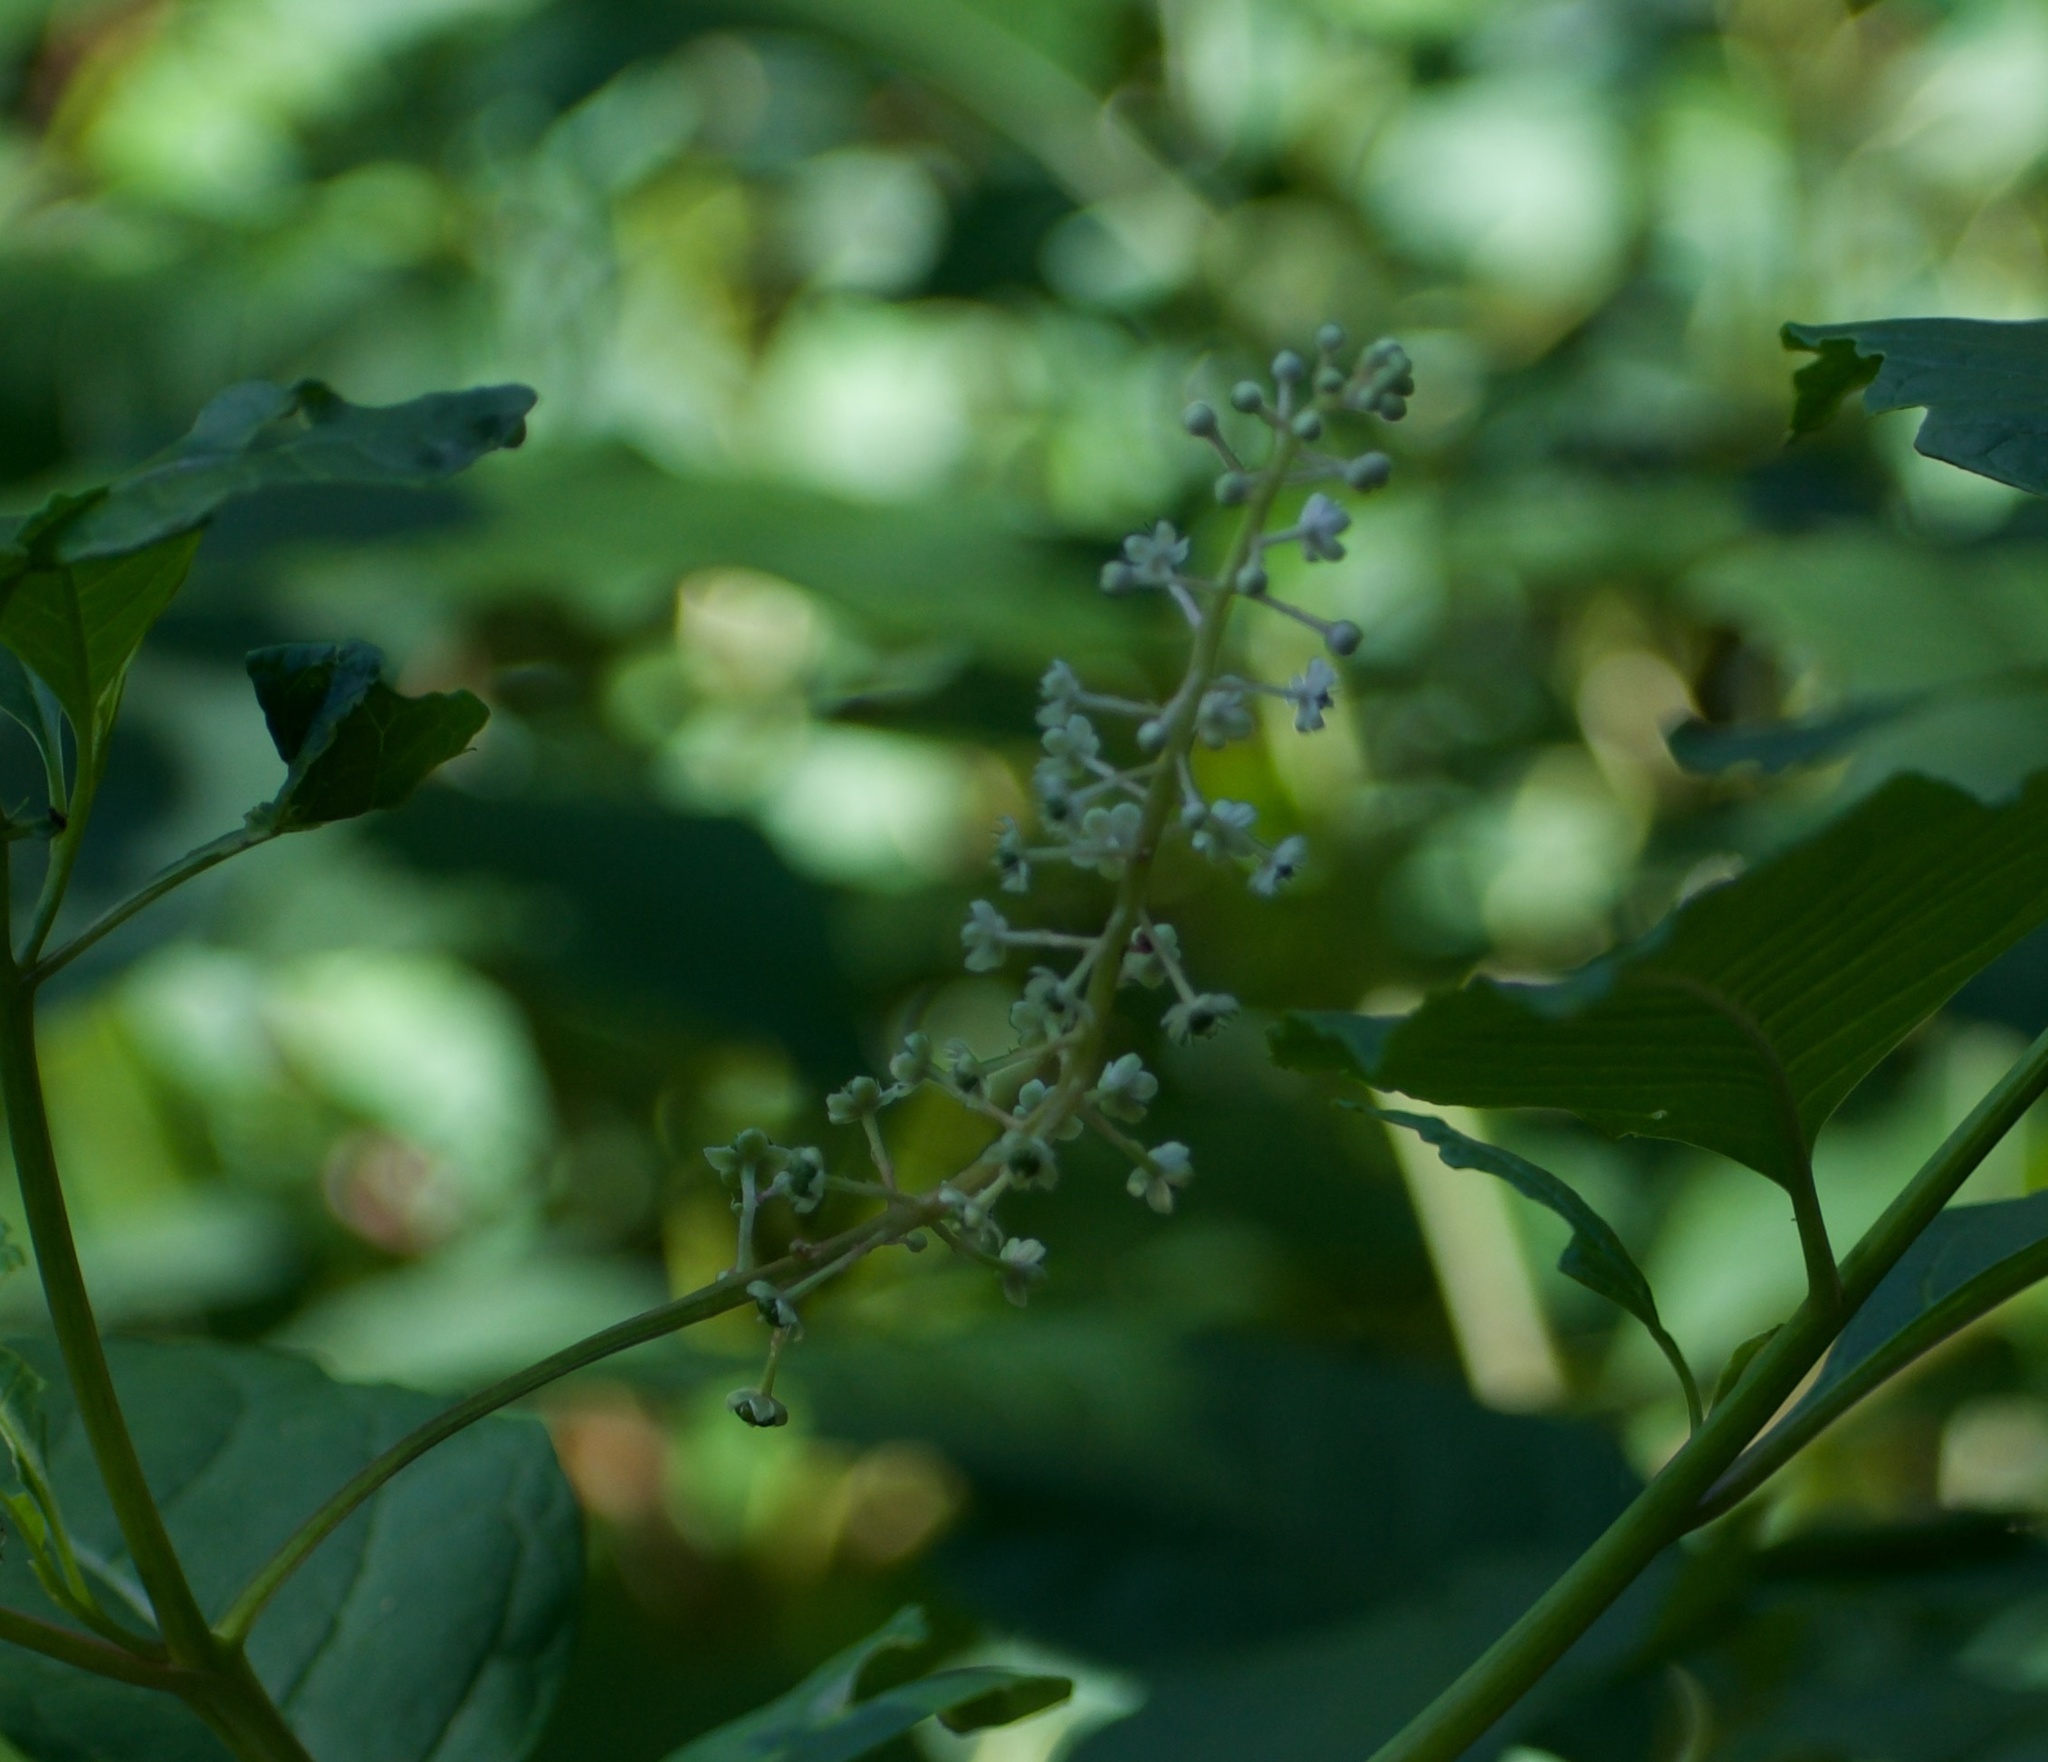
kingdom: Plantae
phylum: Tracheophyta
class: Magnoliopsida
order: Caryophyllales
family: Phytolaccaceae
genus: Phytolacca
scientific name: Phytolacca americana
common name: American pokeweed
